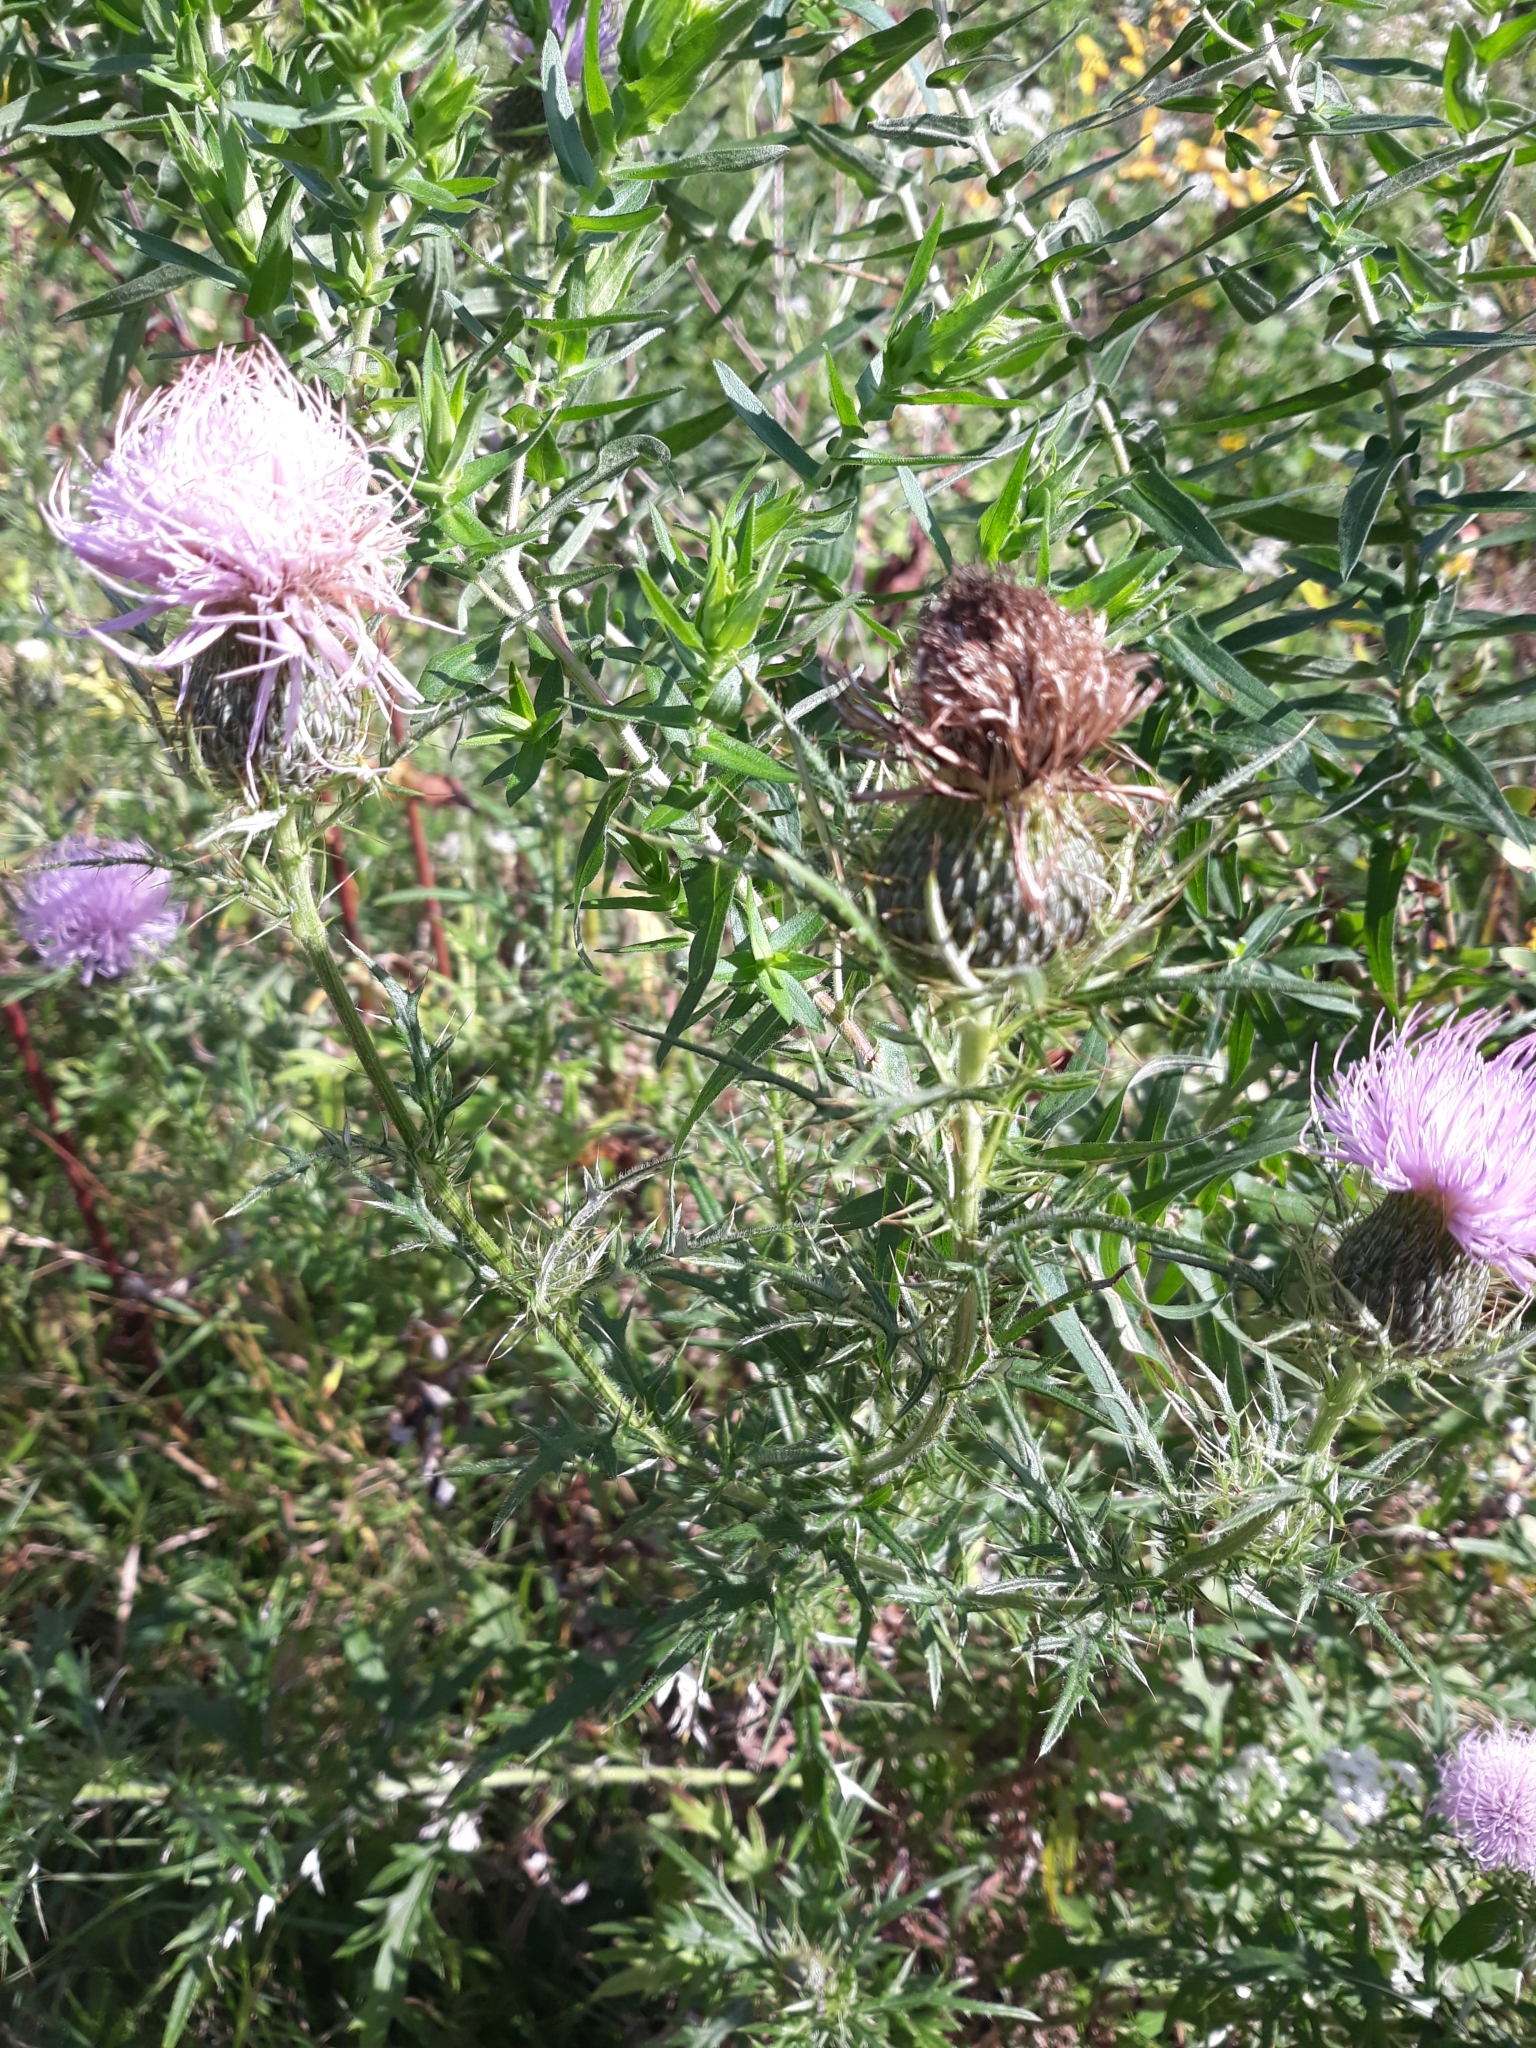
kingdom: Plantae
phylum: Tracheophyta
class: Magnoliopsida
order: Asterales
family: Asteraceae
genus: Cirsium
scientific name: Cirsium discolor
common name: Field thistle
